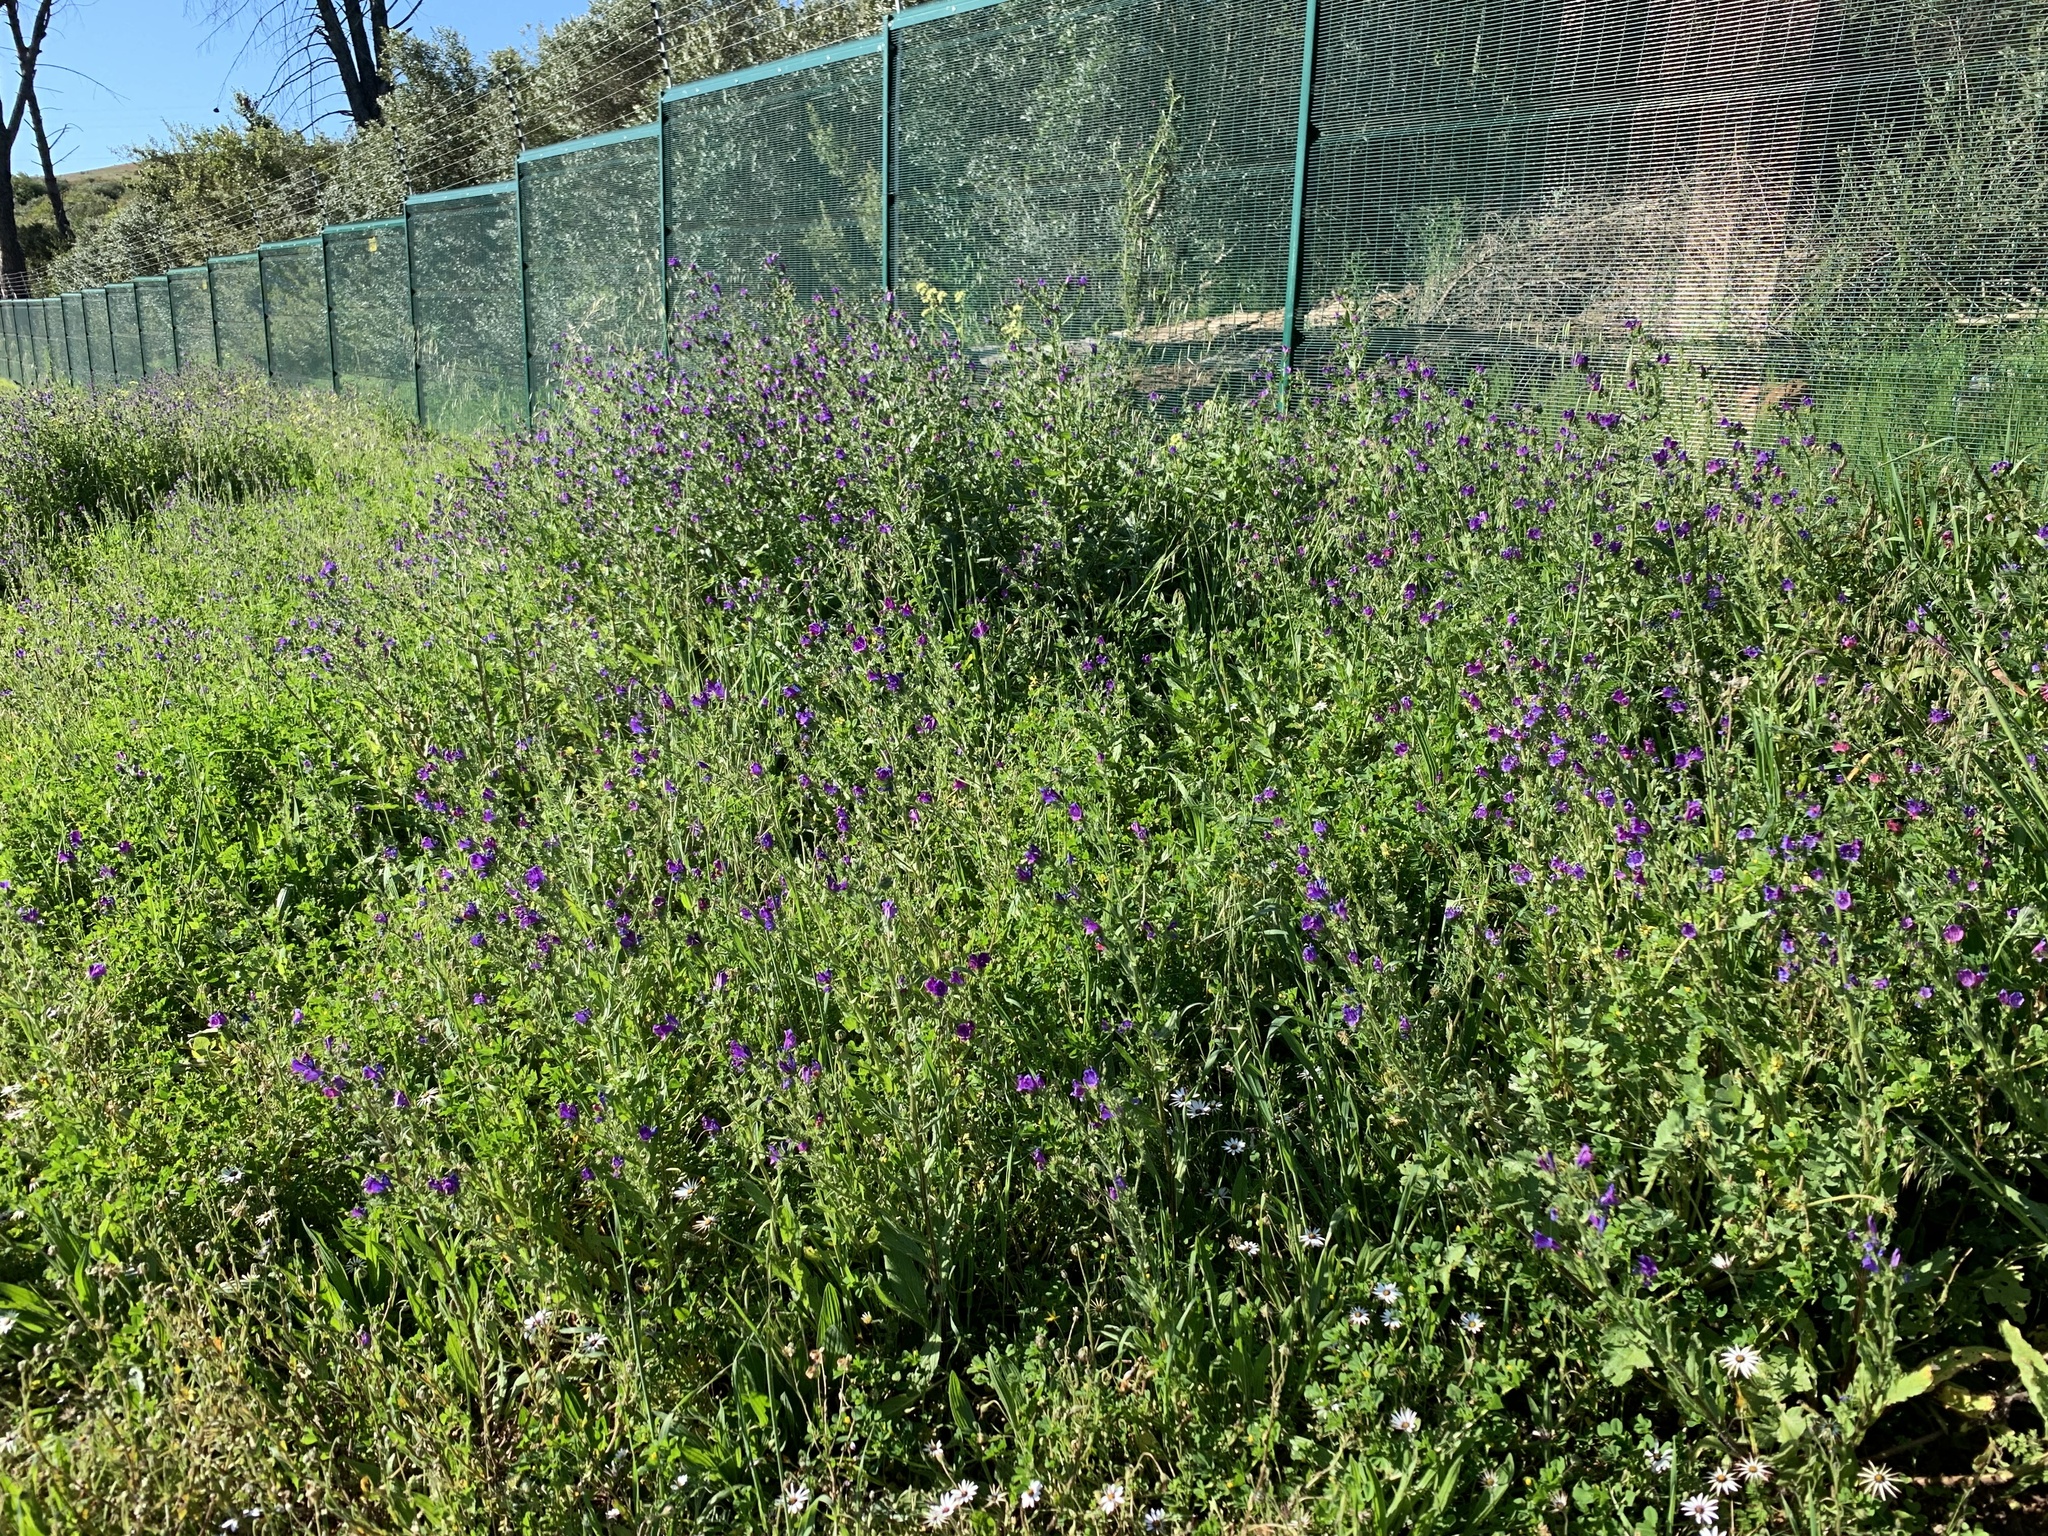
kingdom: Plantae
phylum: Tracheophyta
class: Magnoliopsida
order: Boraginales
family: Boraginaceae
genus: Echium
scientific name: Echium plantagineum
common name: Purple viper's-bugloss
